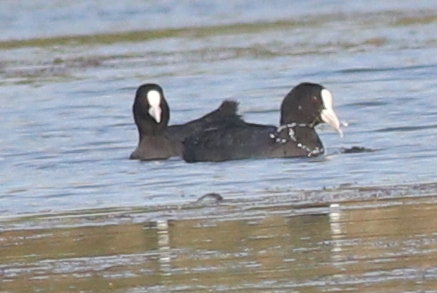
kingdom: Animalia
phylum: Chordata
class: Aves
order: Gruiformes
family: Rallidae
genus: Fulica
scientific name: Fulica atra
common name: Eurasian coot
